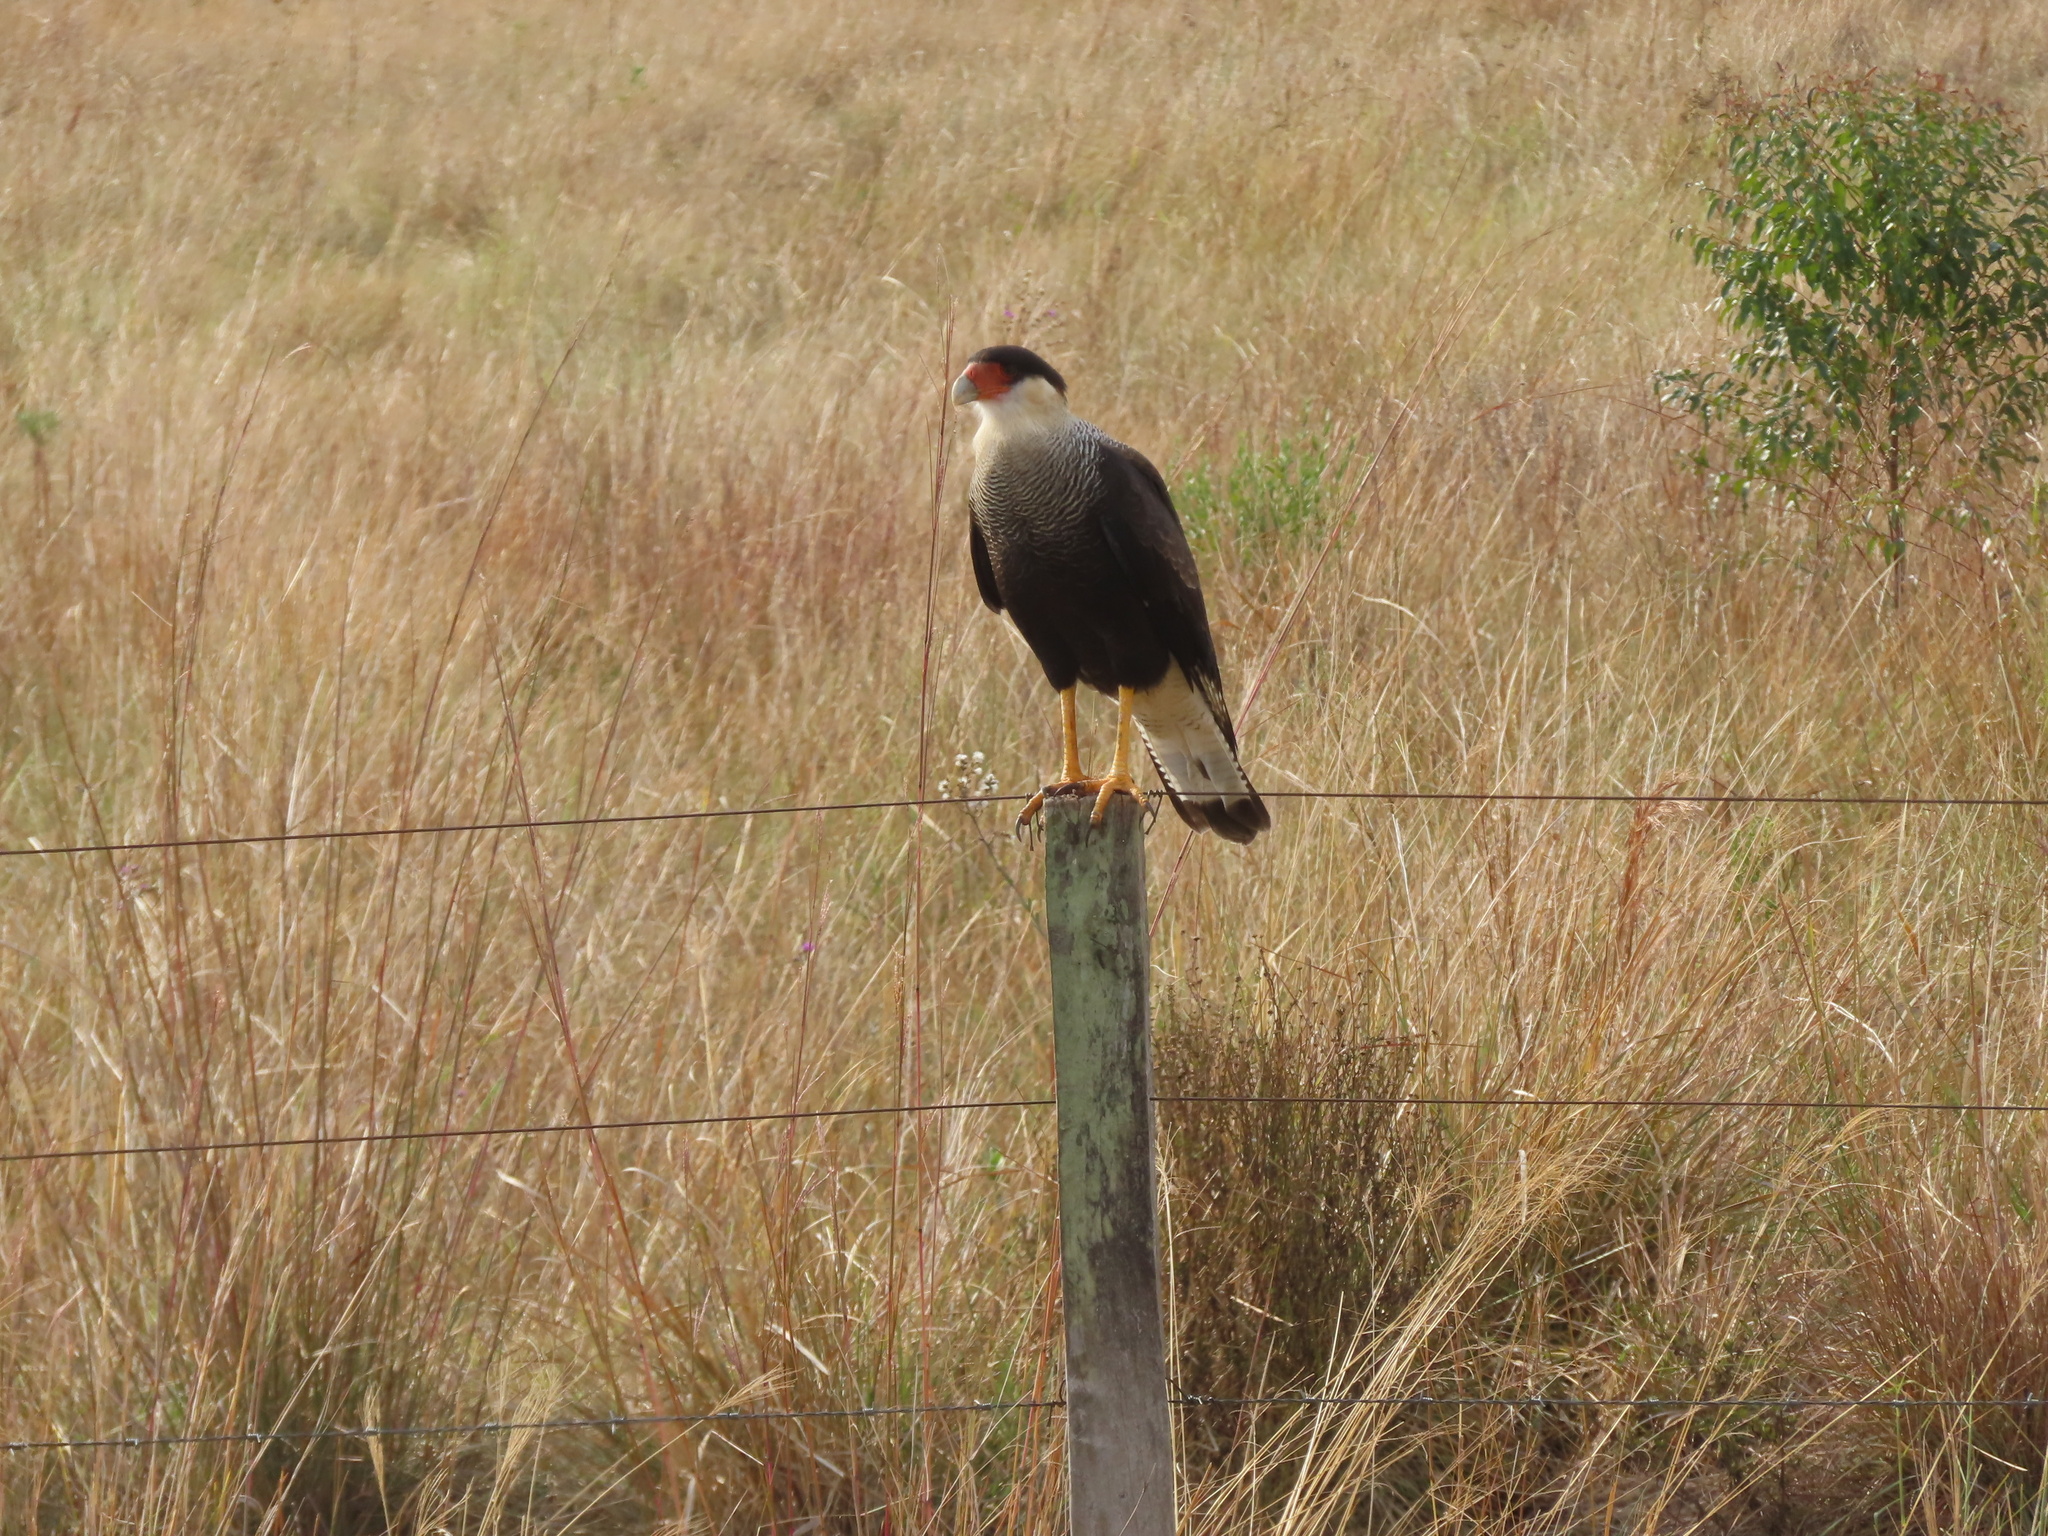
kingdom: Animalia
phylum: Chordata
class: Aves
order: Falconiformes
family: Falconidae
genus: Caracara
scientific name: Caracara plancus
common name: Southern caracara
